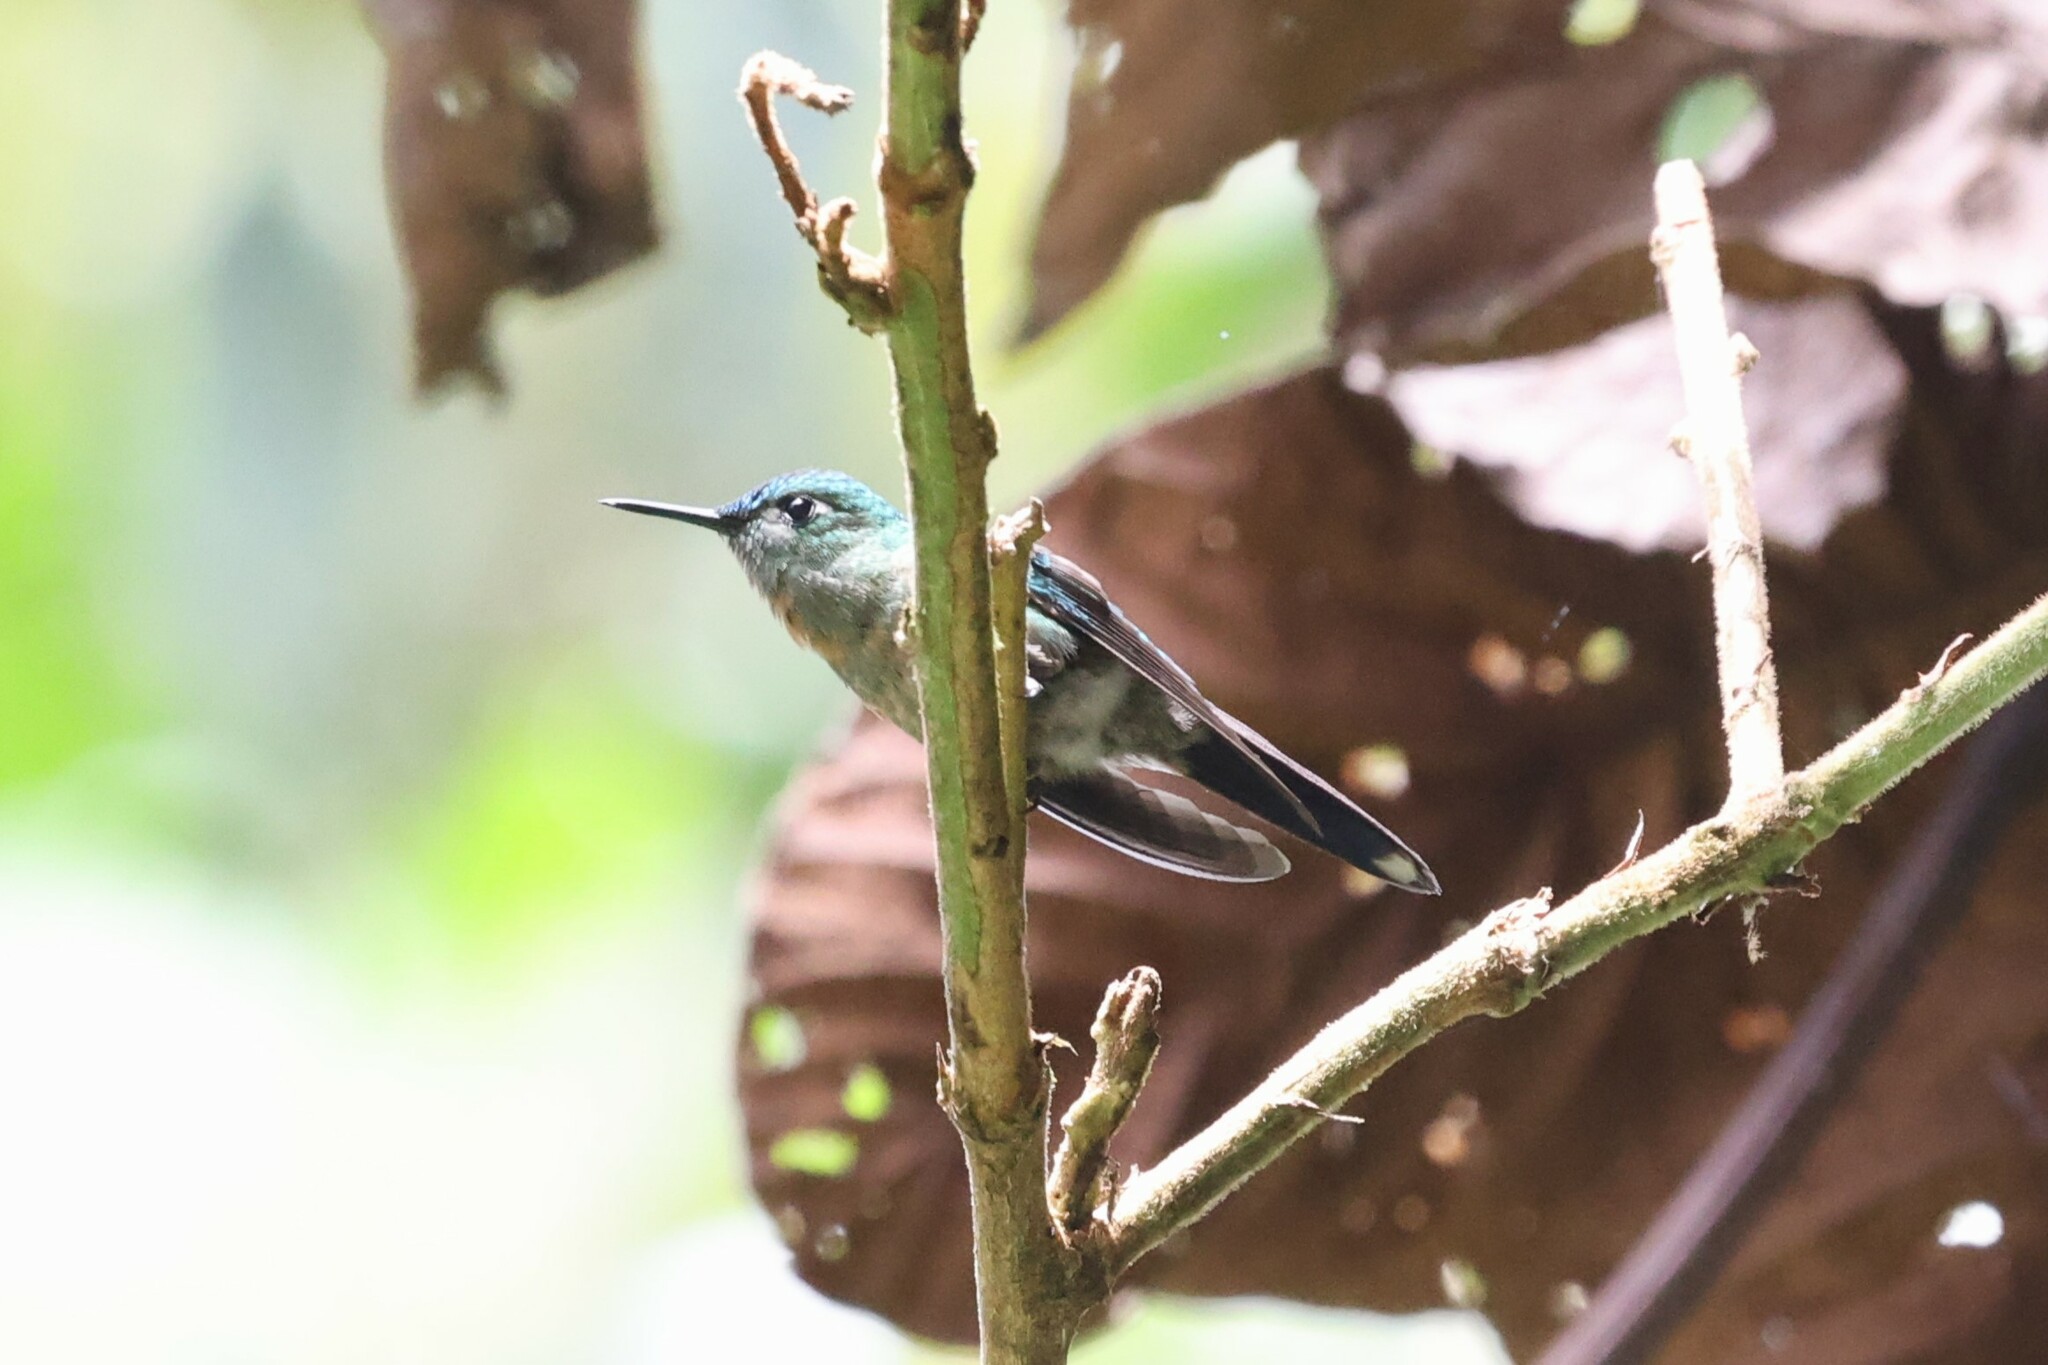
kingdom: Animalia
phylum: Chordata
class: Aves
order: Apodiformes
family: Trochilidae
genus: Aglaiocercus
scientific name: Aglaiocercus kingii
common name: Long-tailed sylph
